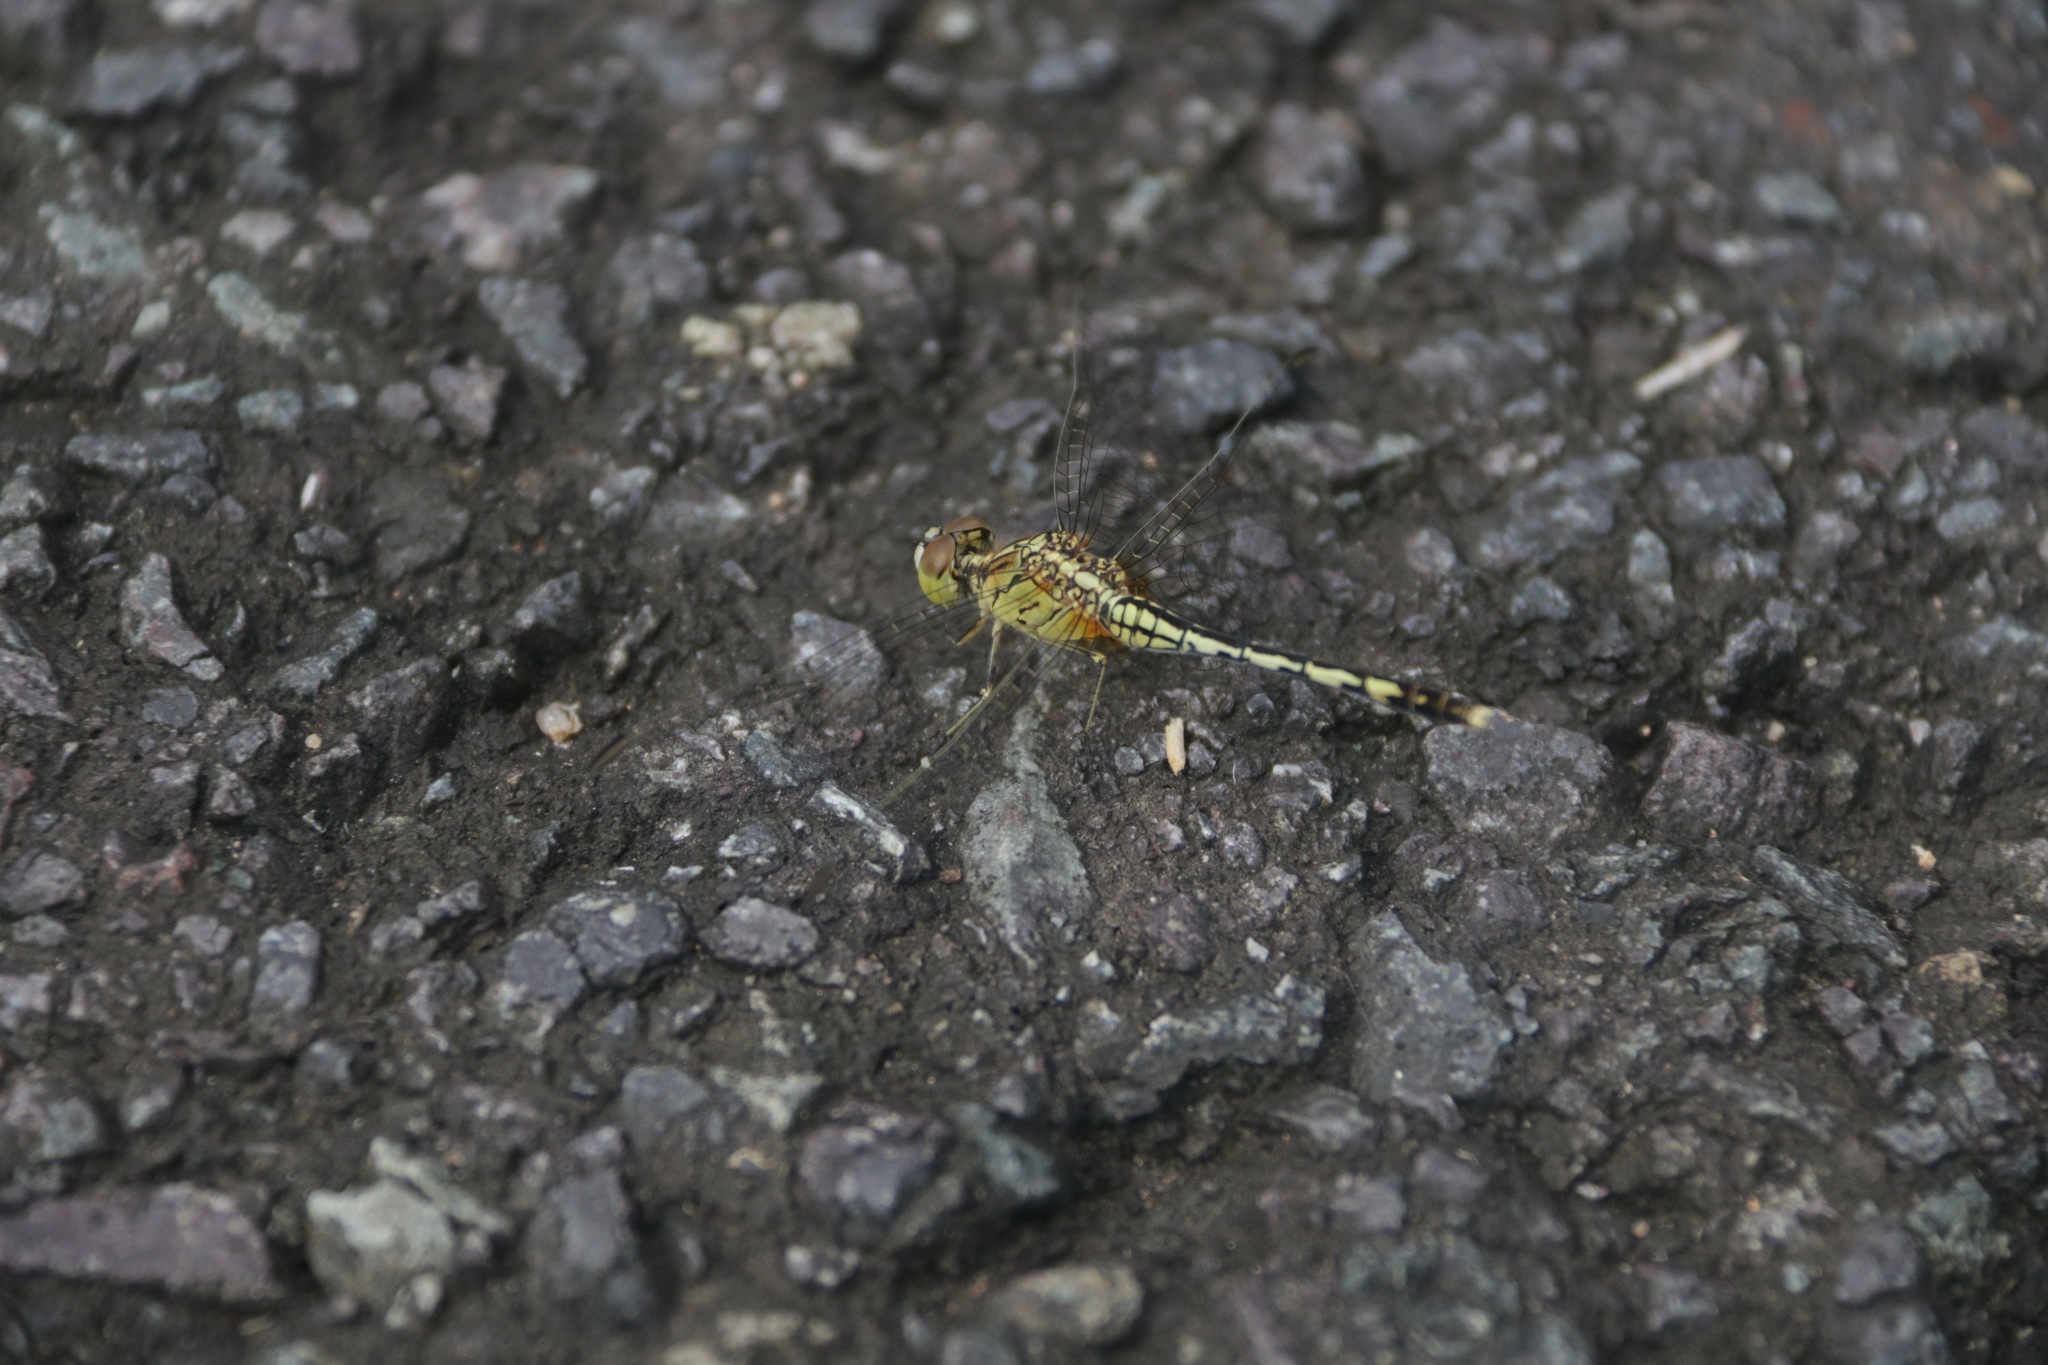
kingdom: Animalia
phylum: Arthropoda
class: Insecta
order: Odonata
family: Libellulidae
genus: Diplacodes
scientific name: Diplacodes trivialis
